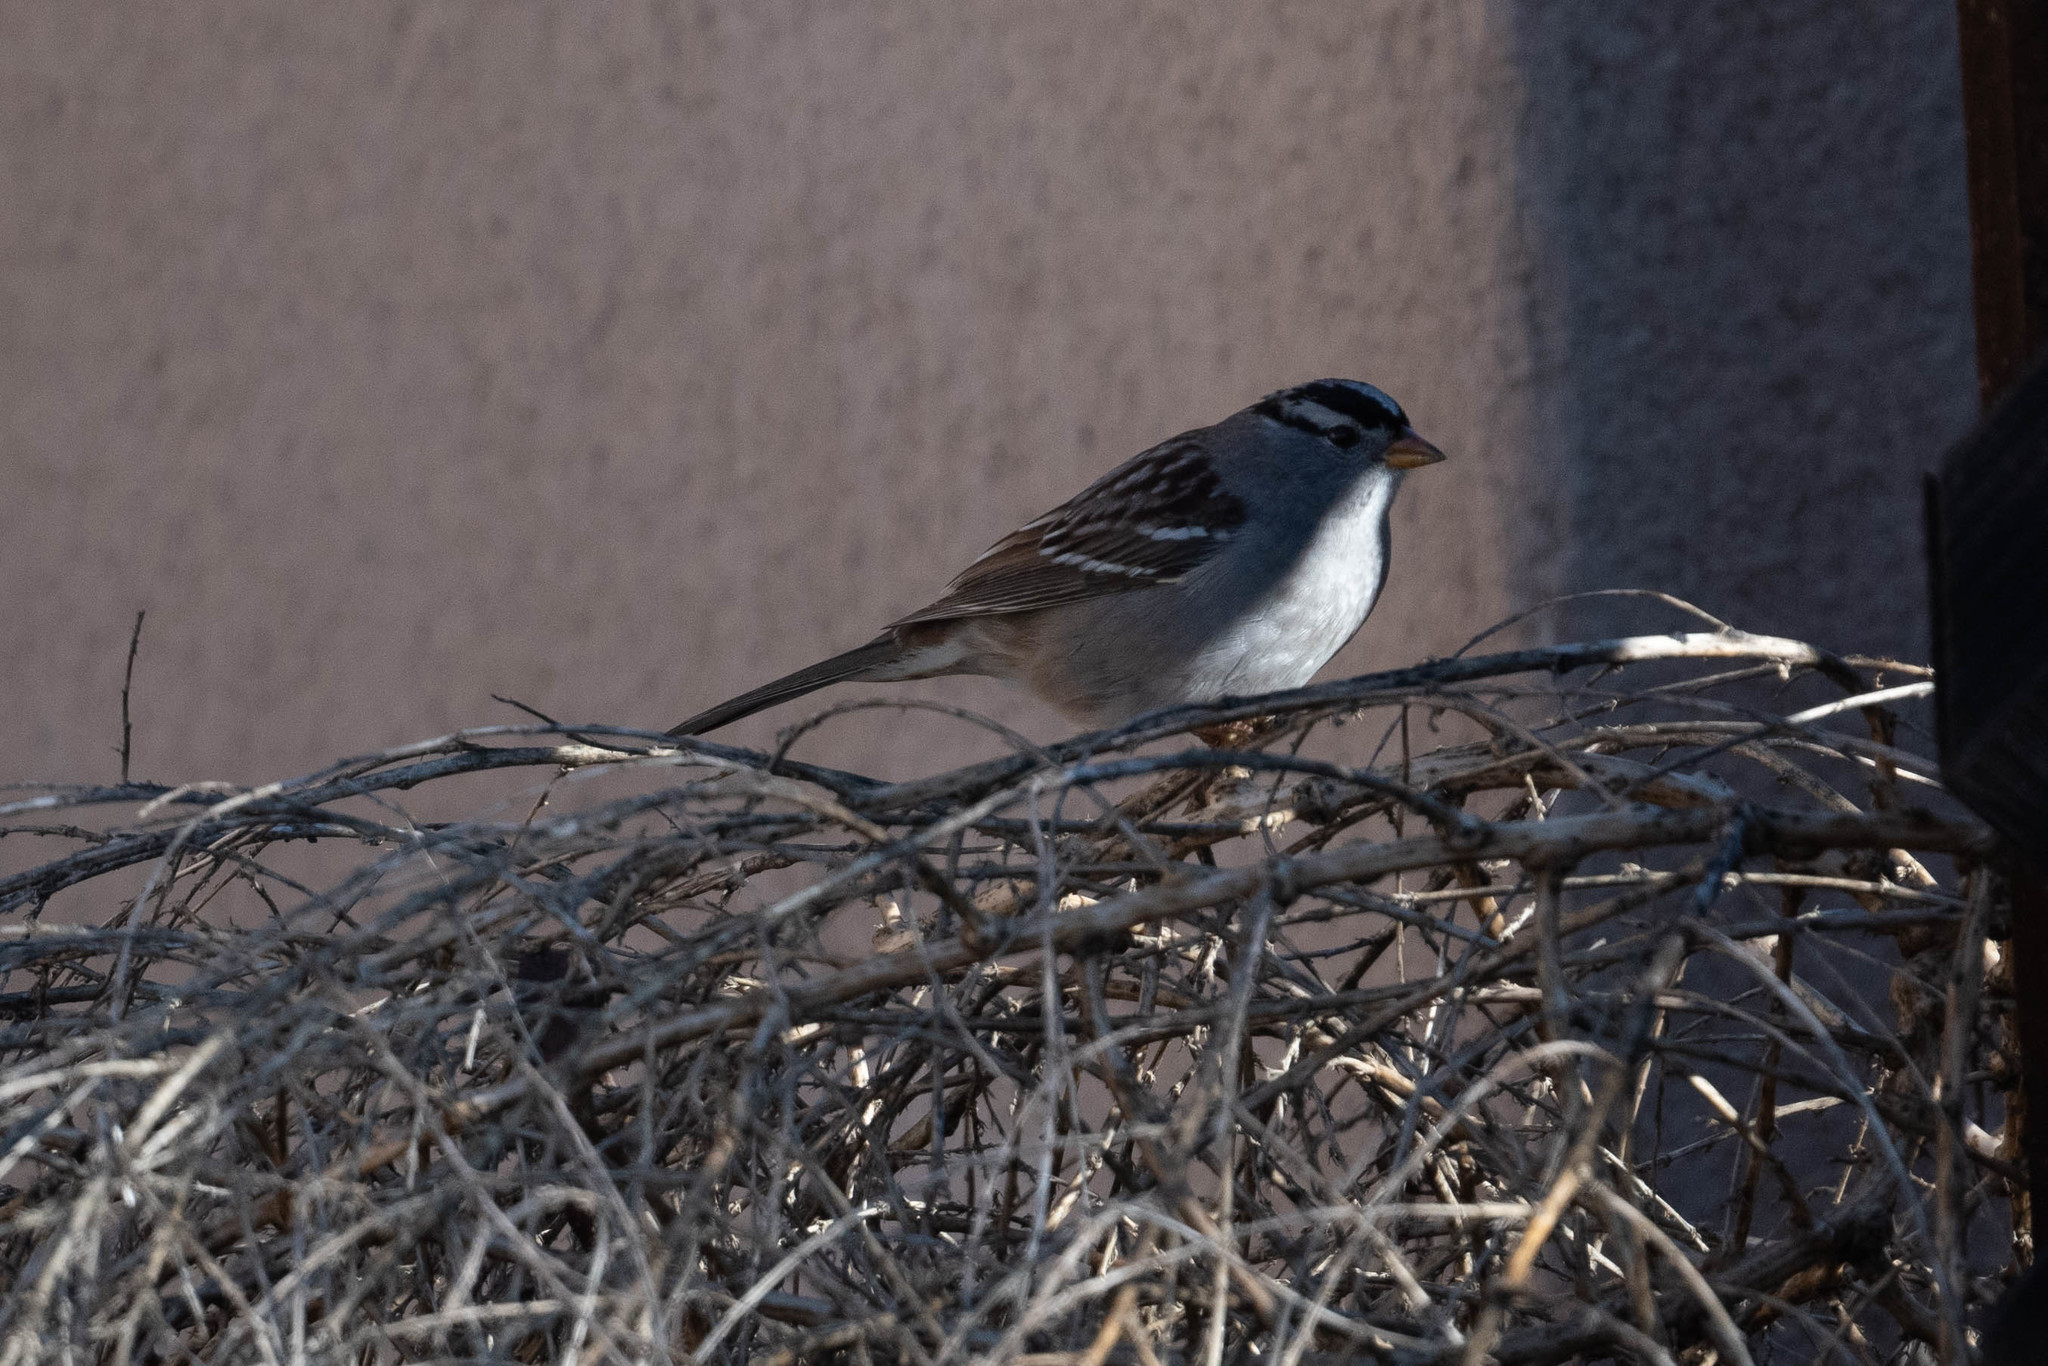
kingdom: Animalia
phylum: Chordata
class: Aves
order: Passeriformes
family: Passerellidae
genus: Zonotrichia
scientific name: Zonotrichia leucophrys
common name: White-crowned sparrow
